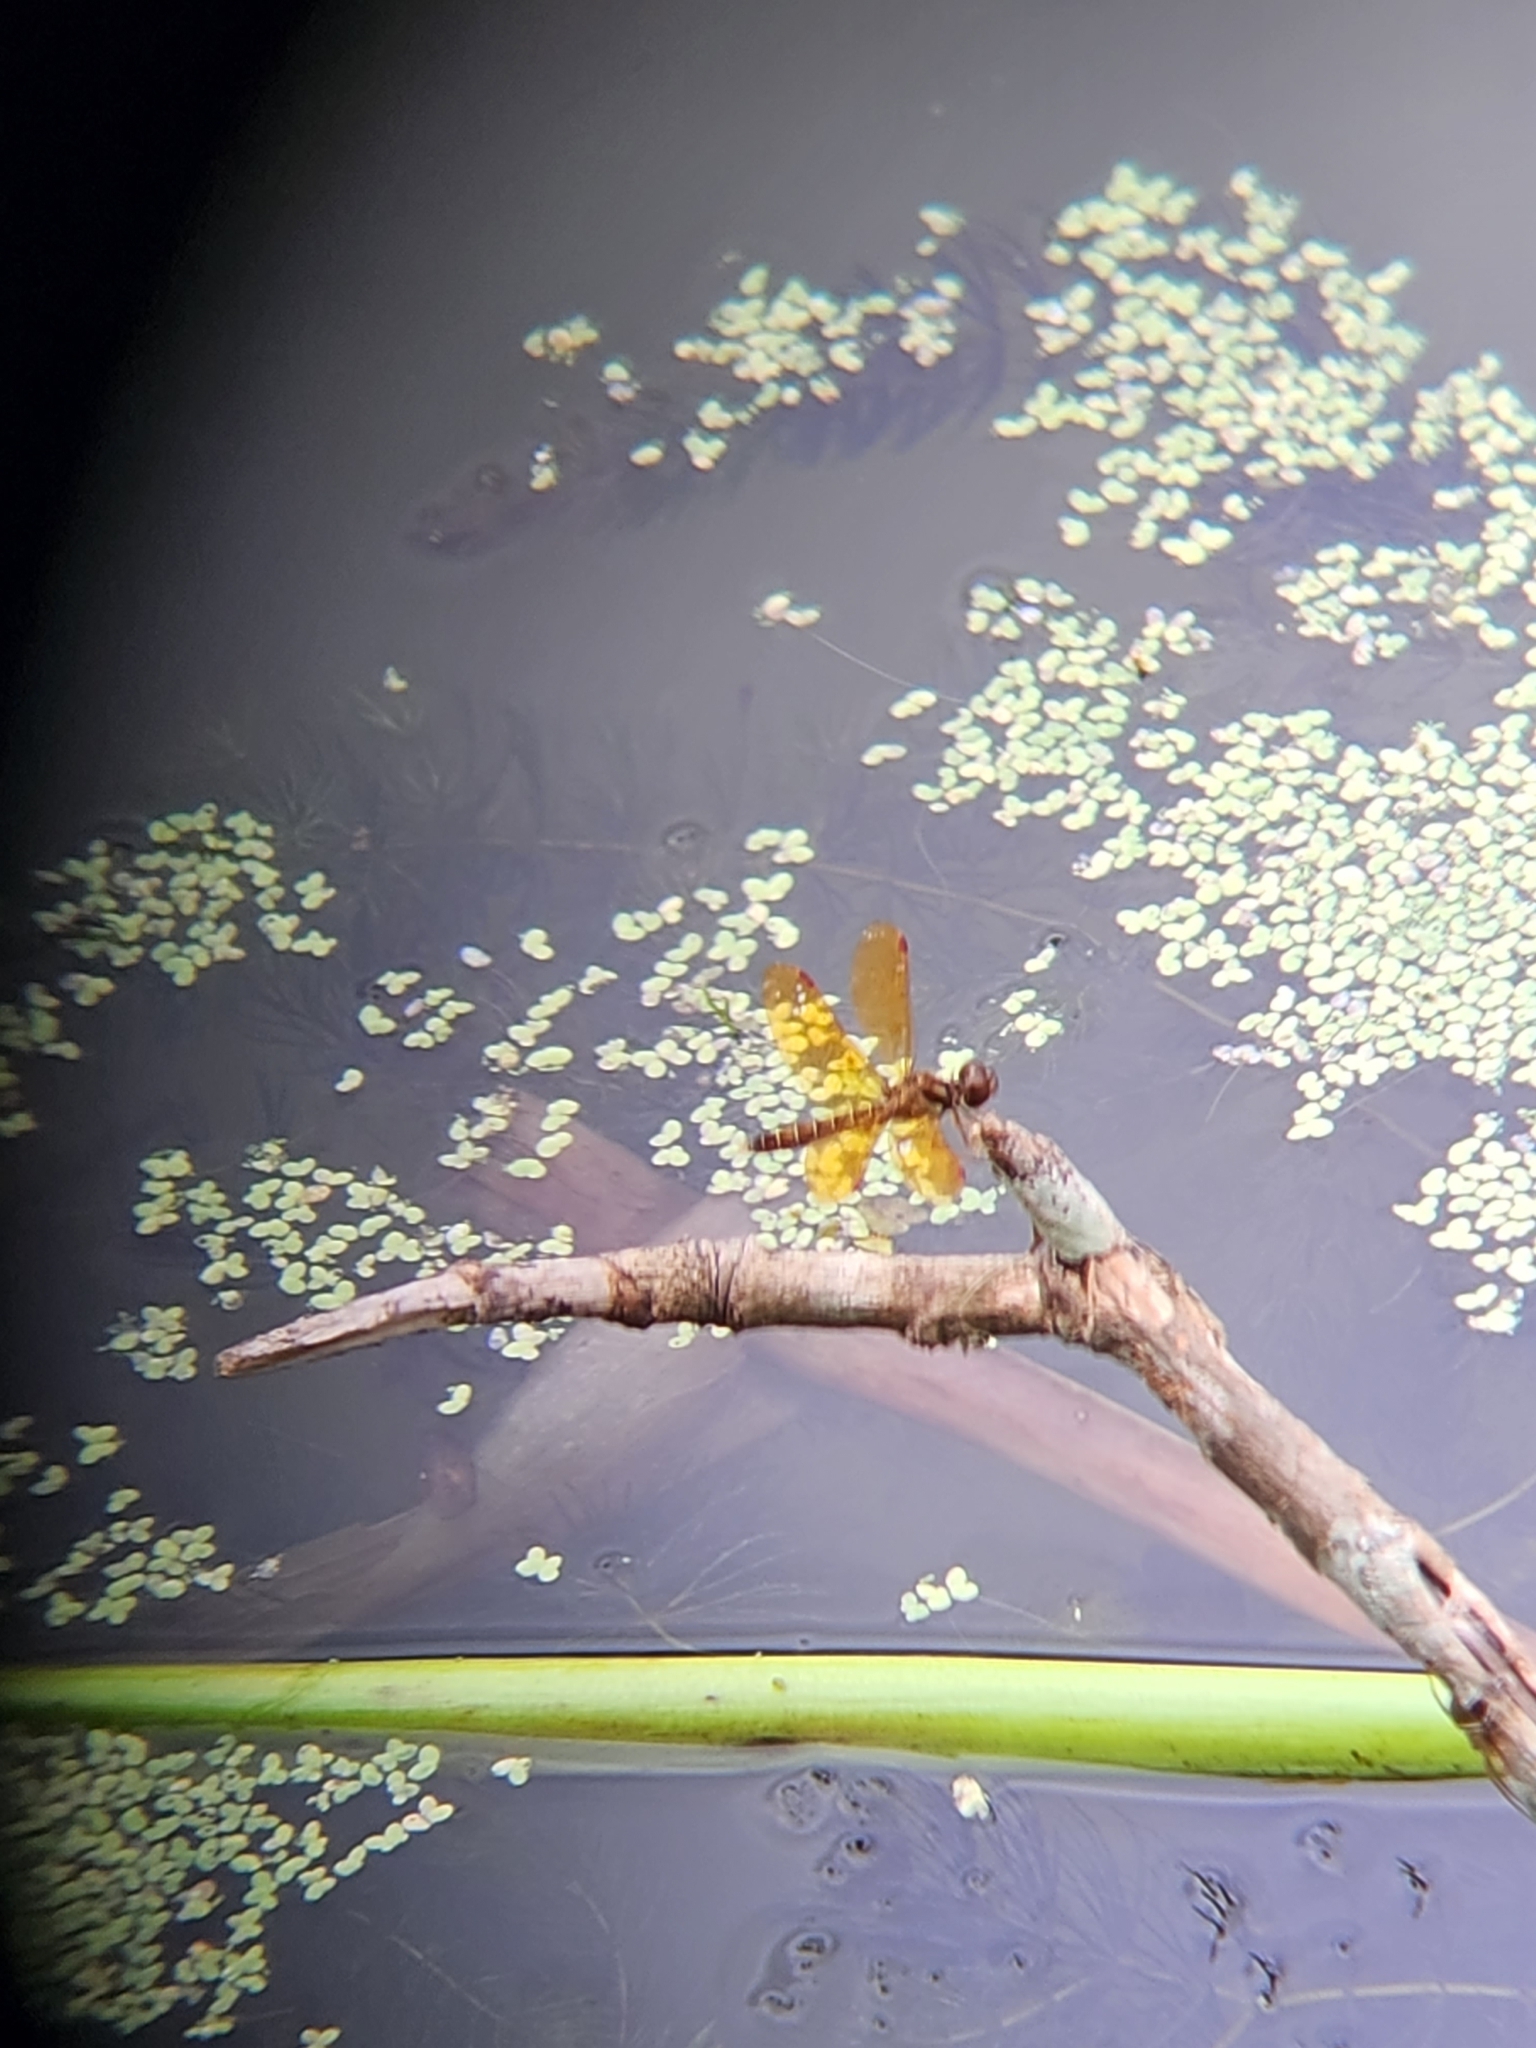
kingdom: Animalia
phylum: Arthropoda
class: Insecta
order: Odonata
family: Libellulidae
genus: Perithemis
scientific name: Perithemis tenera
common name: Eastern amberwing
